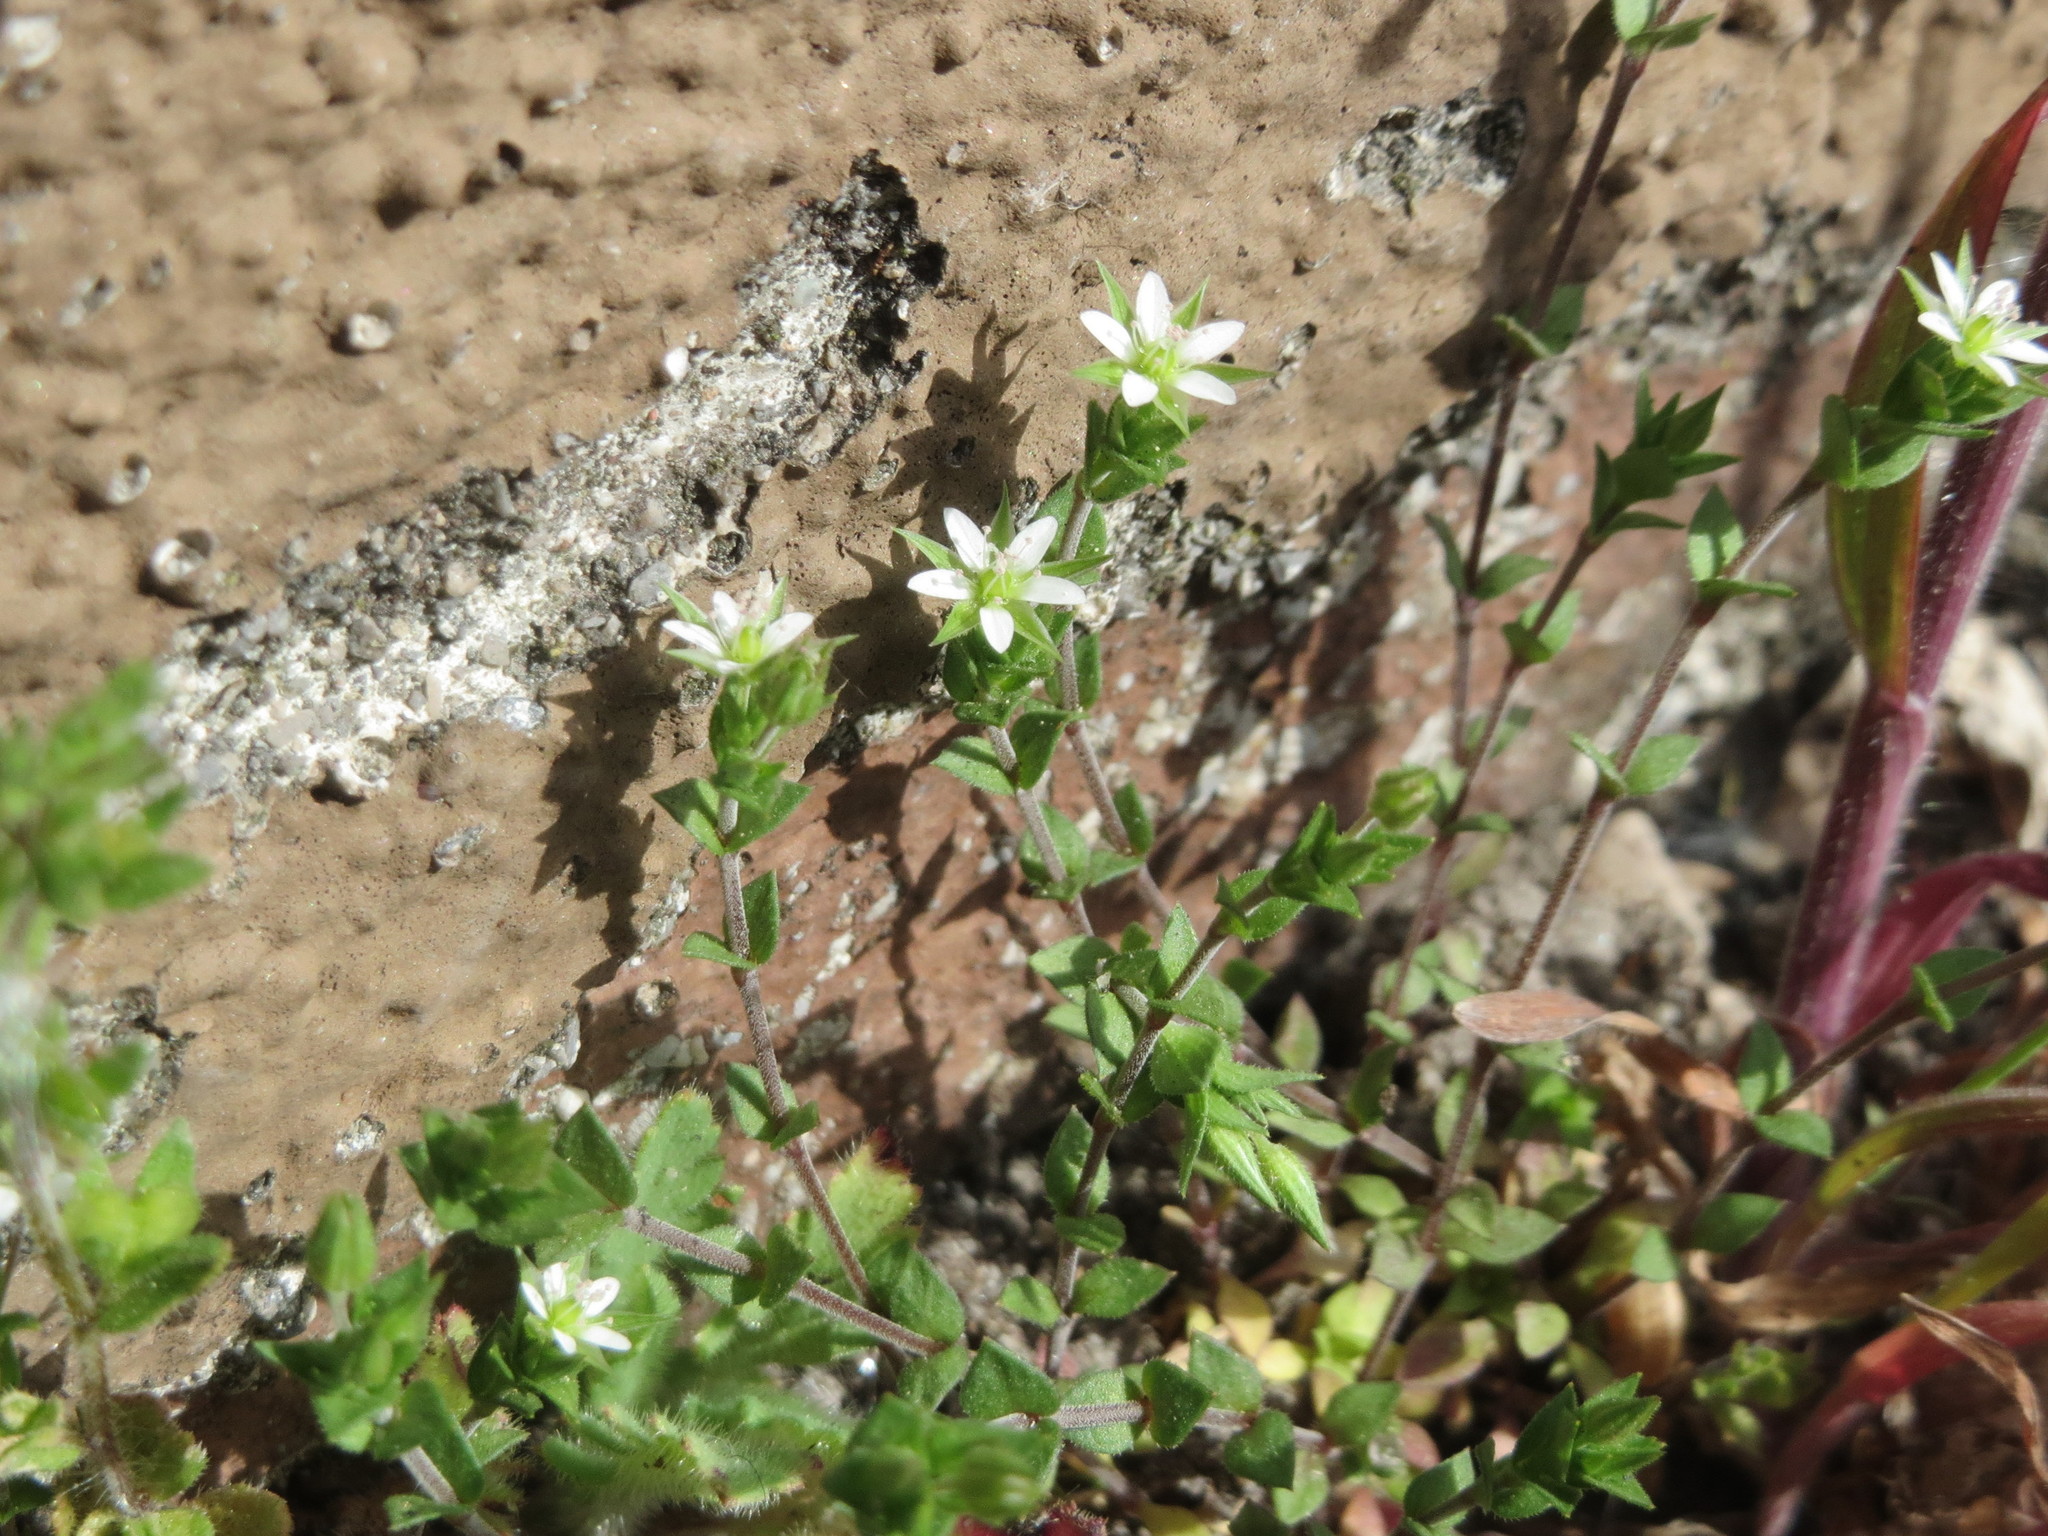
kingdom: Plantae
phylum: Tracheophyta
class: Magnoliopsida
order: Caryophyllales
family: Caryophyllaceae
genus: Arenaria
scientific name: Arenaria serpyllifolia
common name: Thyme-leaved sandwort
